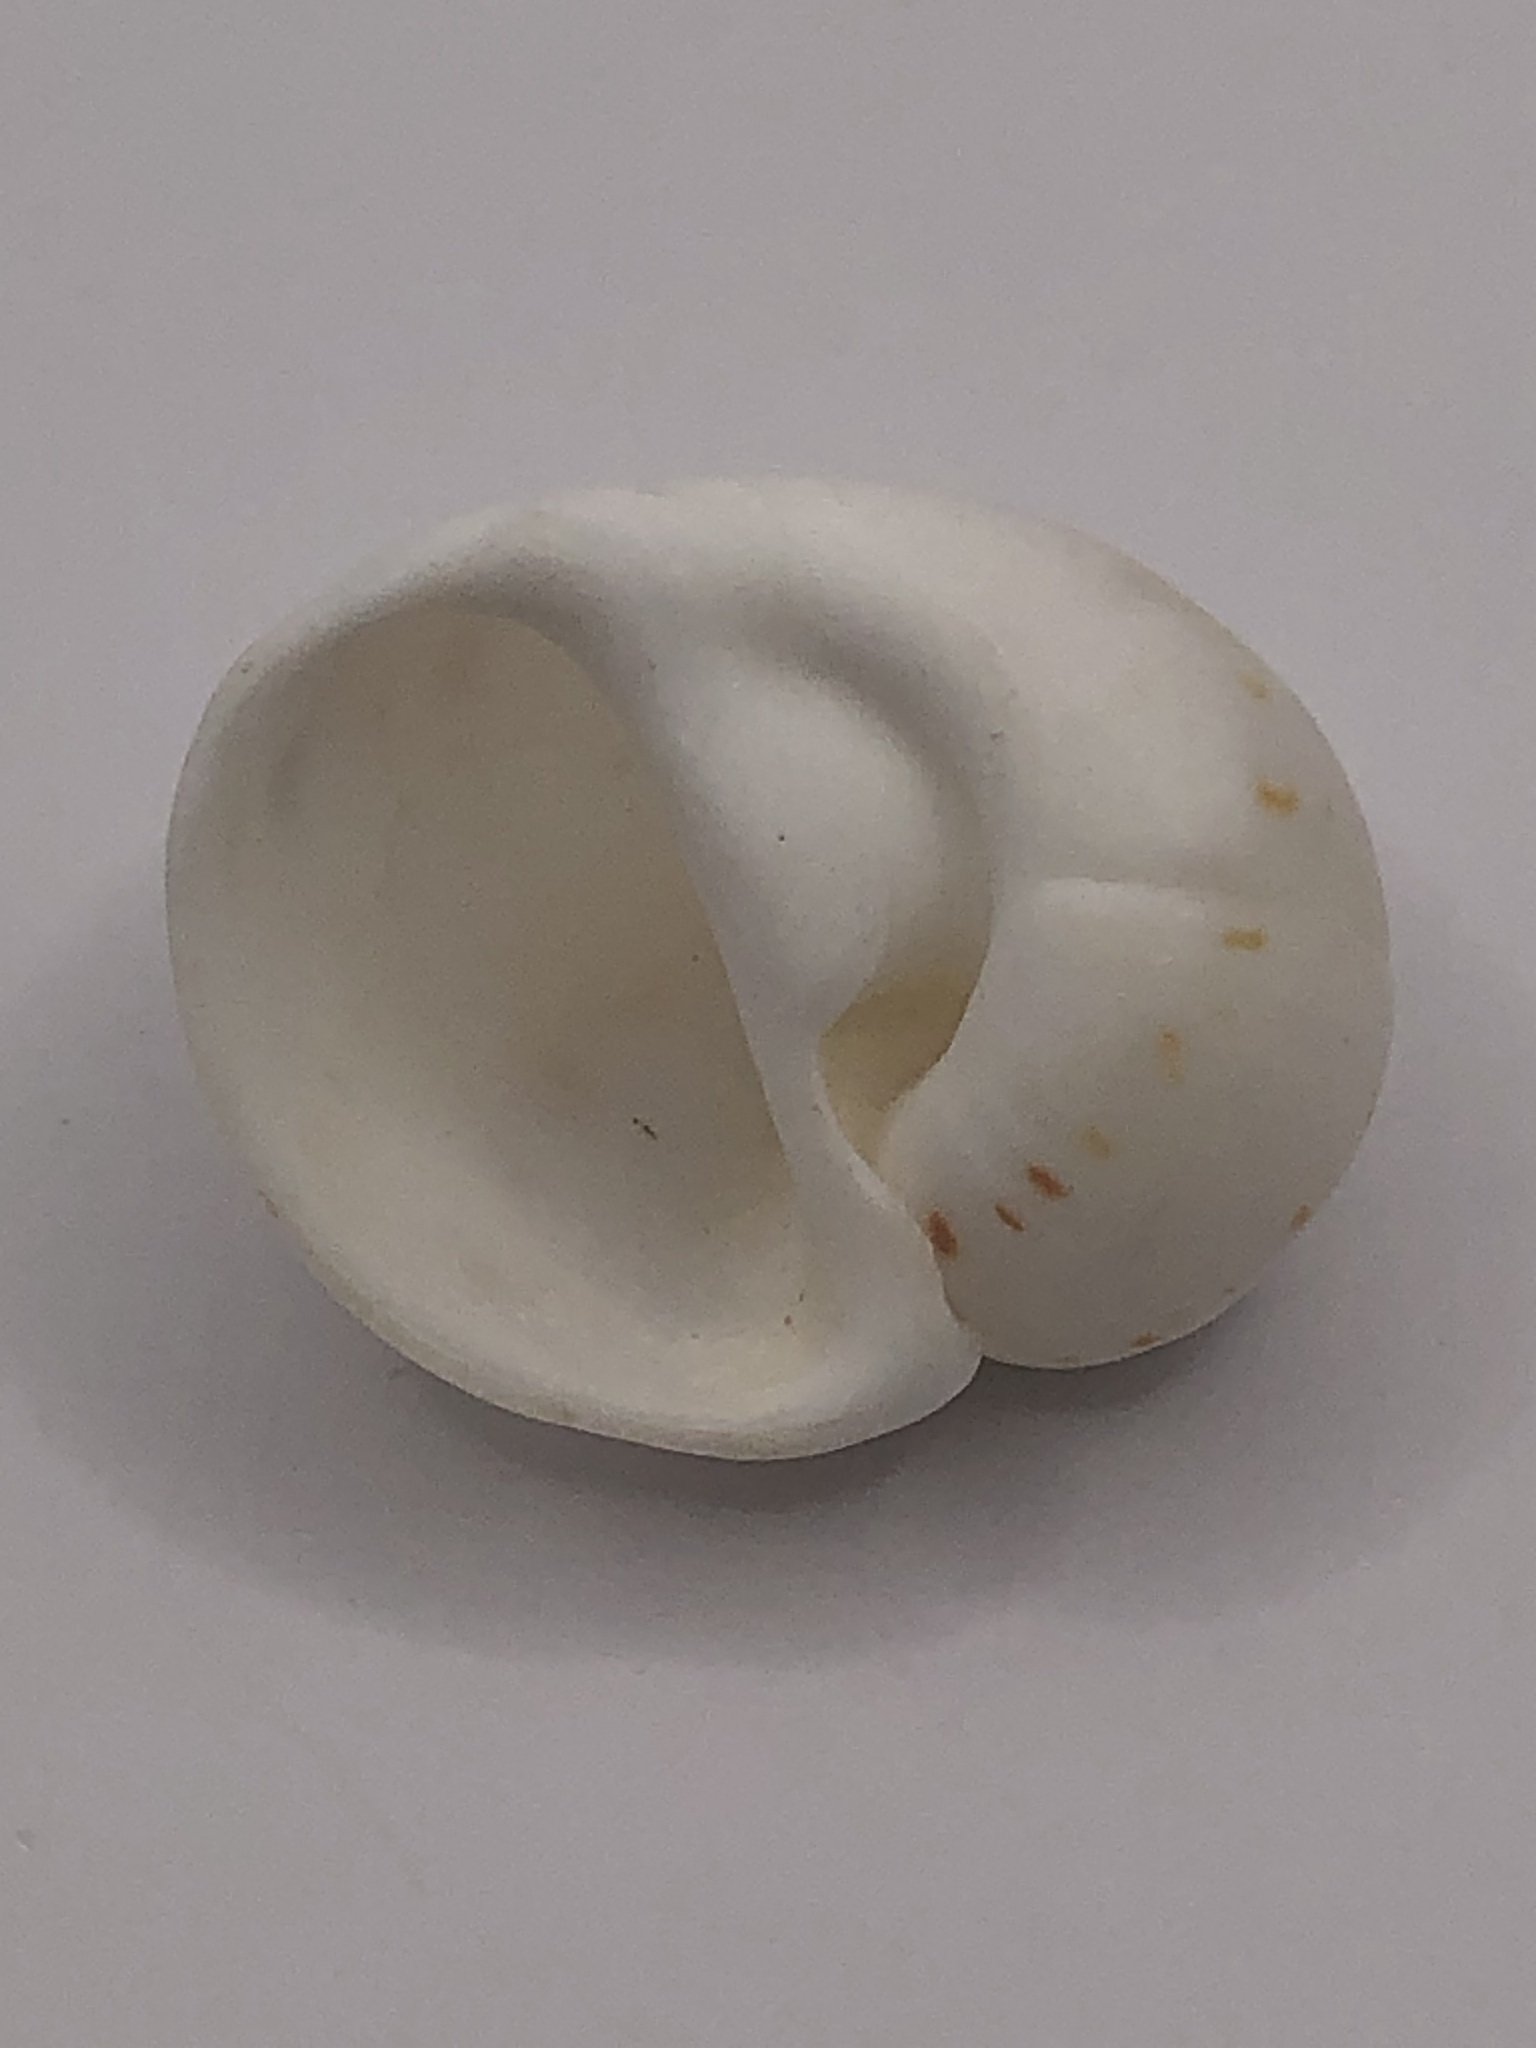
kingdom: Animalia
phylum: Mollusca
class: Gastropoda
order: Littorinimorpha
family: Naticidae
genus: Naticarius
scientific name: Naticarius canrena
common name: Colorful moonsnail
